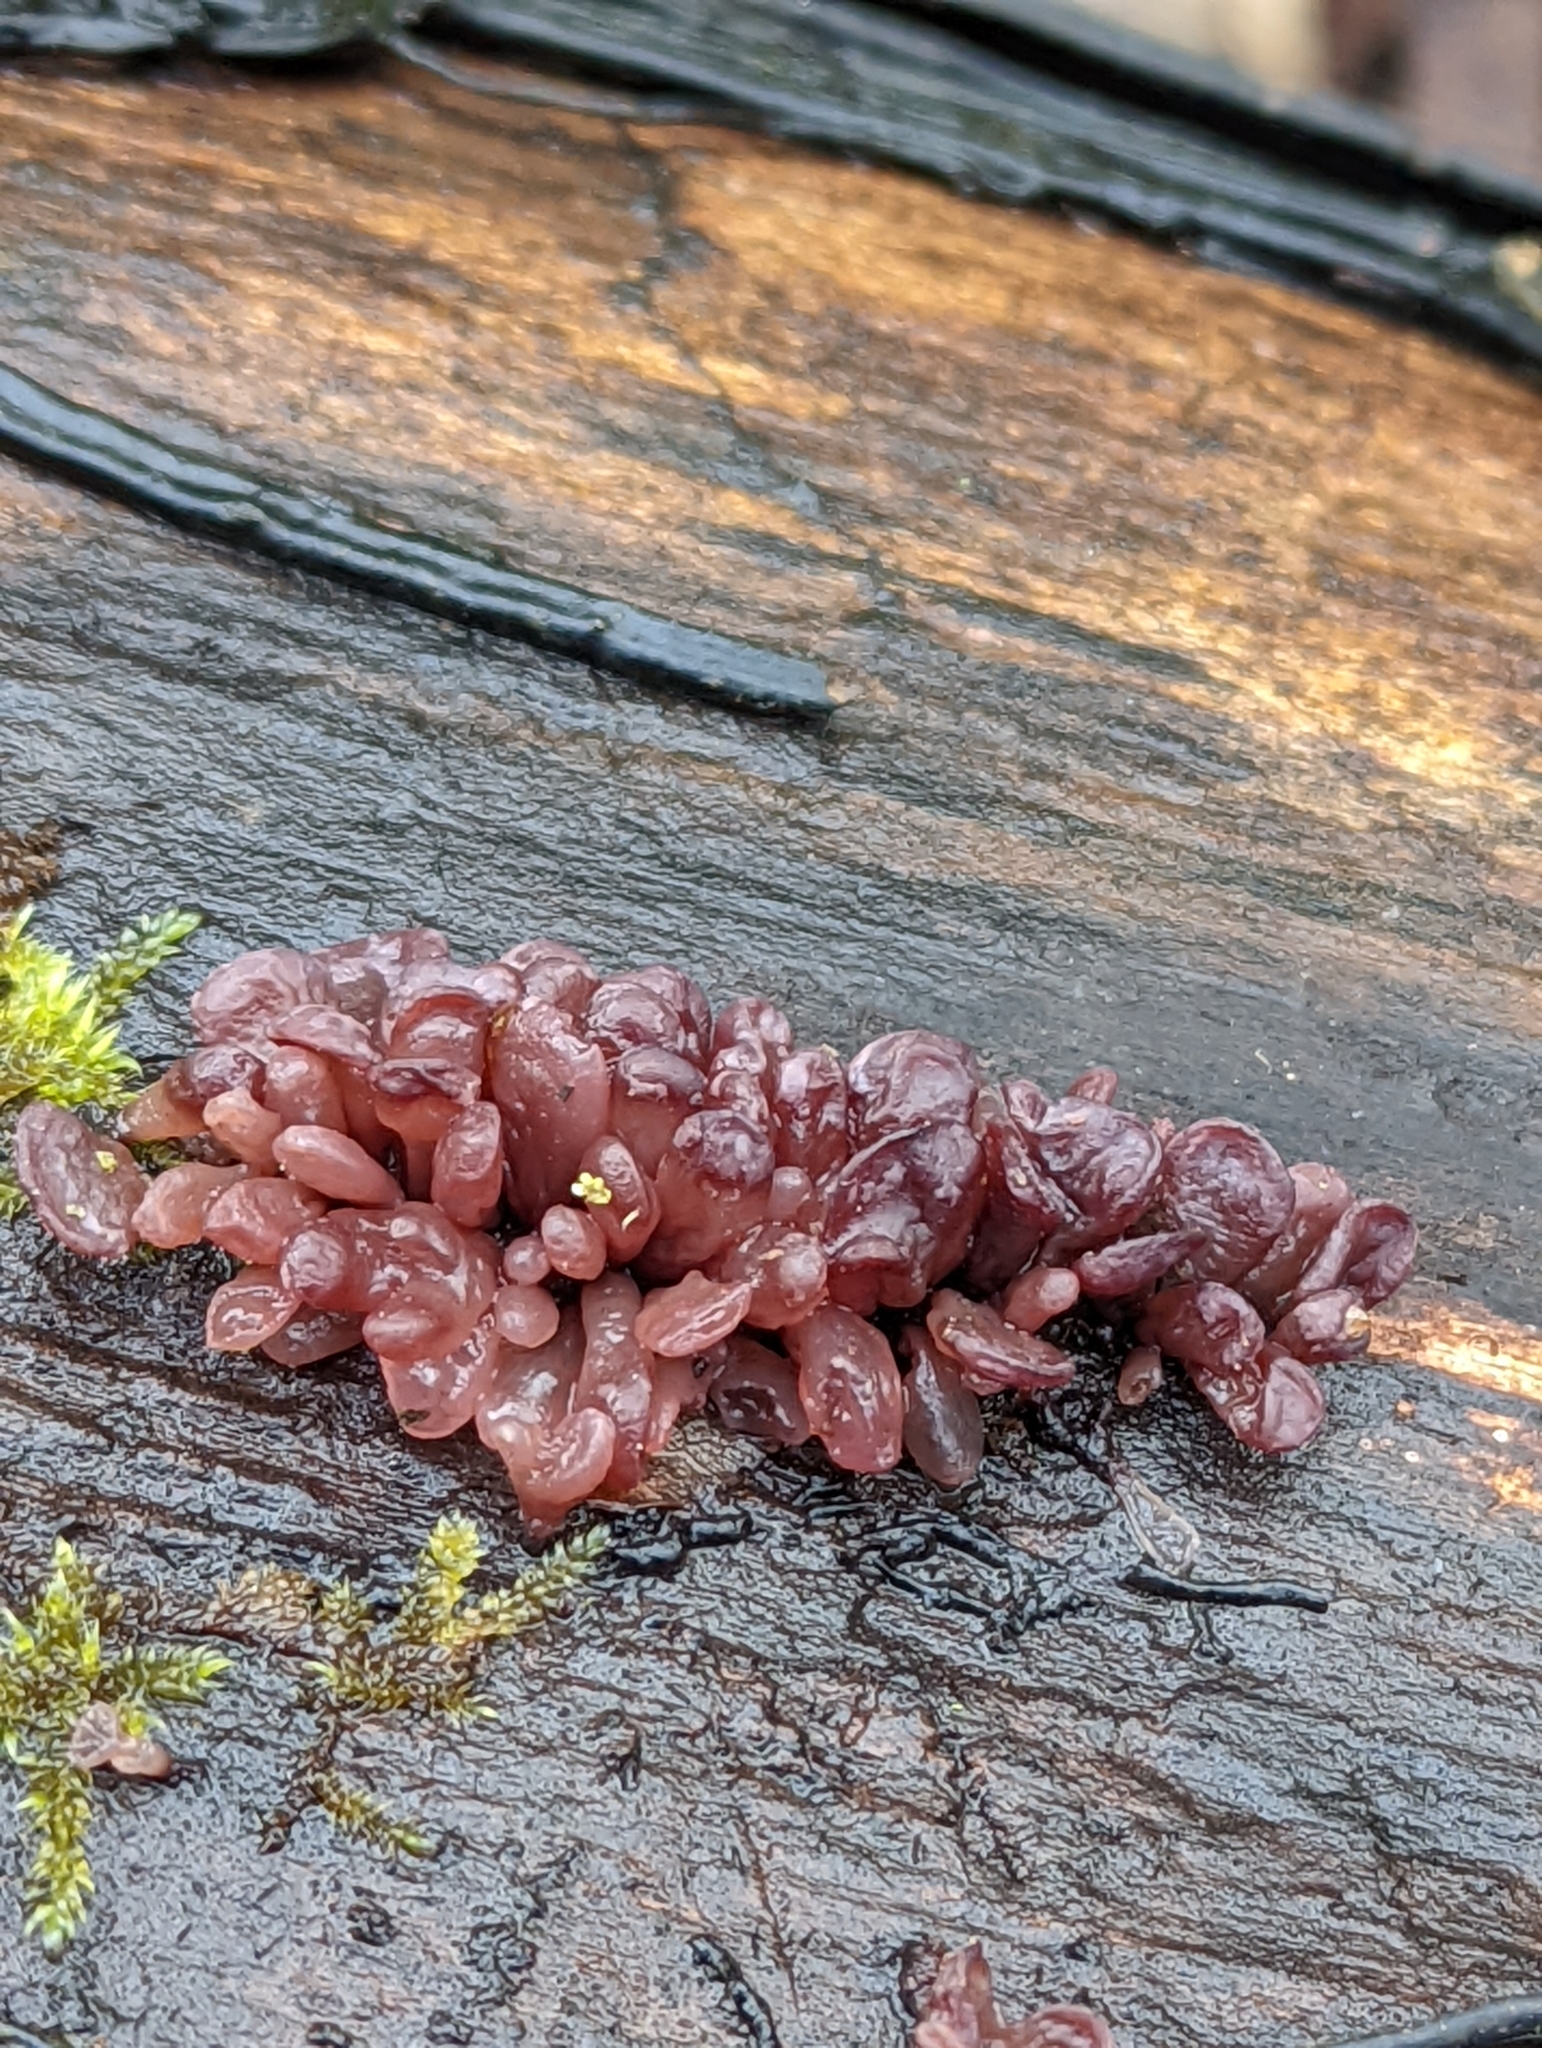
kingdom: Fungi
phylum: Ascomycota
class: Leotiomycetes
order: Helotiales
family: Gelatinodiscaceae
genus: Ascocoryne
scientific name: Ascocoryne sarcoides
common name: Purple jellydisc
